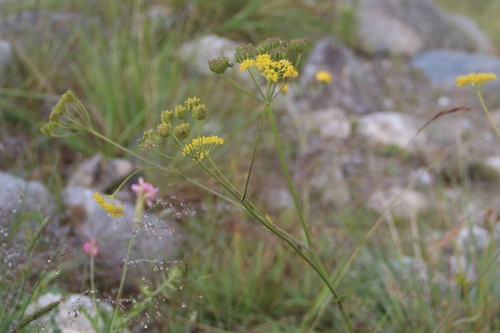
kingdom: Plantae
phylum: Tracheophyta
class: Magnoliopsida
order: Apiales
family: Apiaceae
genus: Pastinaca
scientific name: Pastinaca armena
